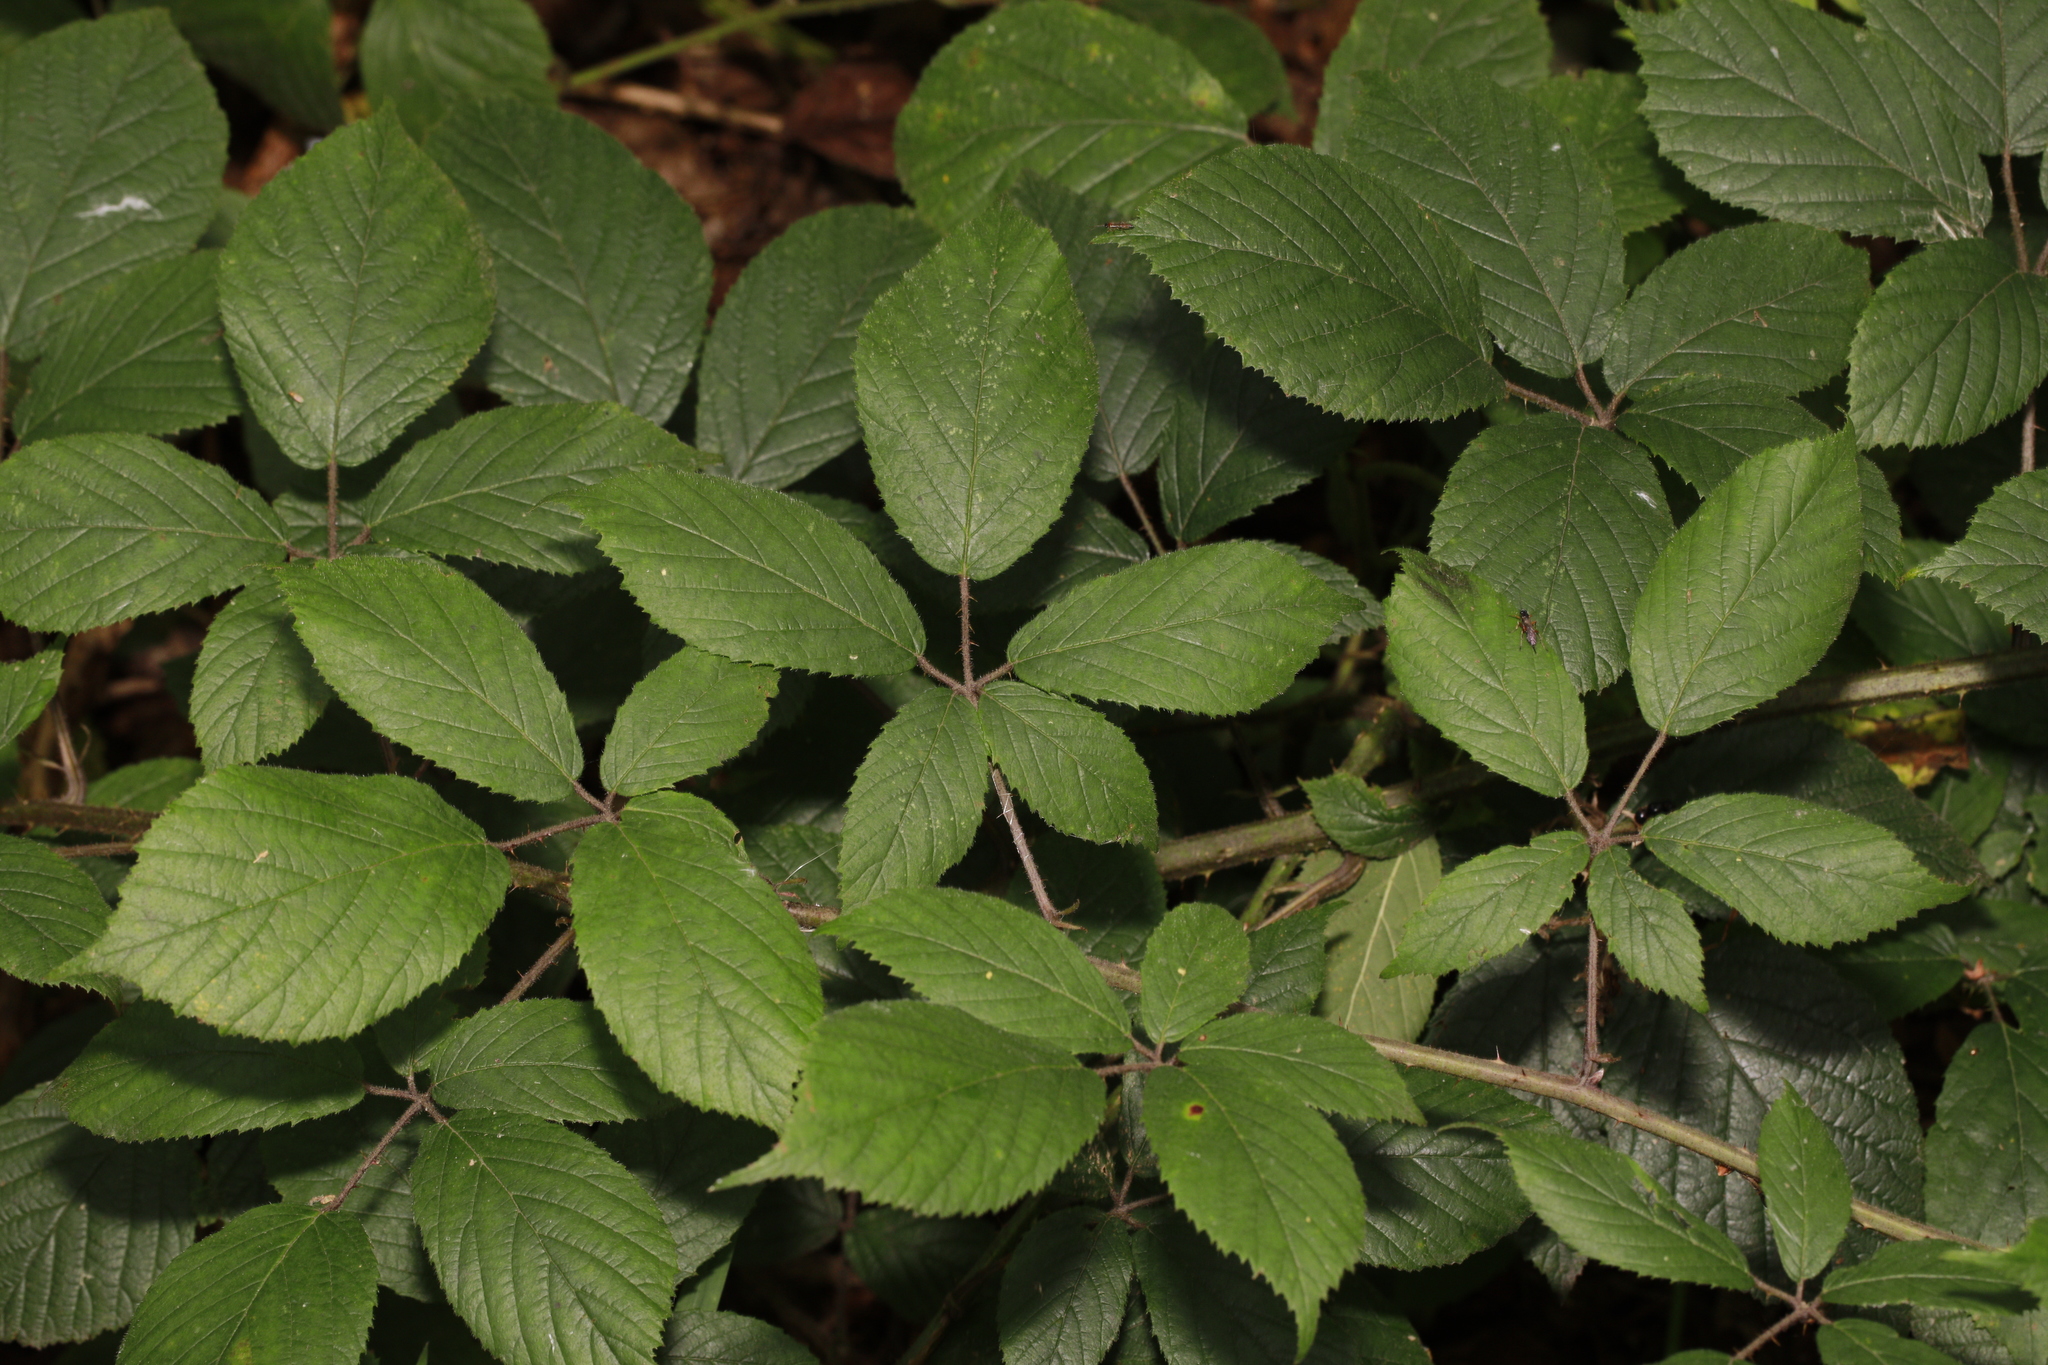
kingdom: Plantae
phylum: Tracheophyta
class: Magnoliopsida
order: Rosales
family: Rosaceae
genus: Rubus
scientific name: Rubus rufescens
